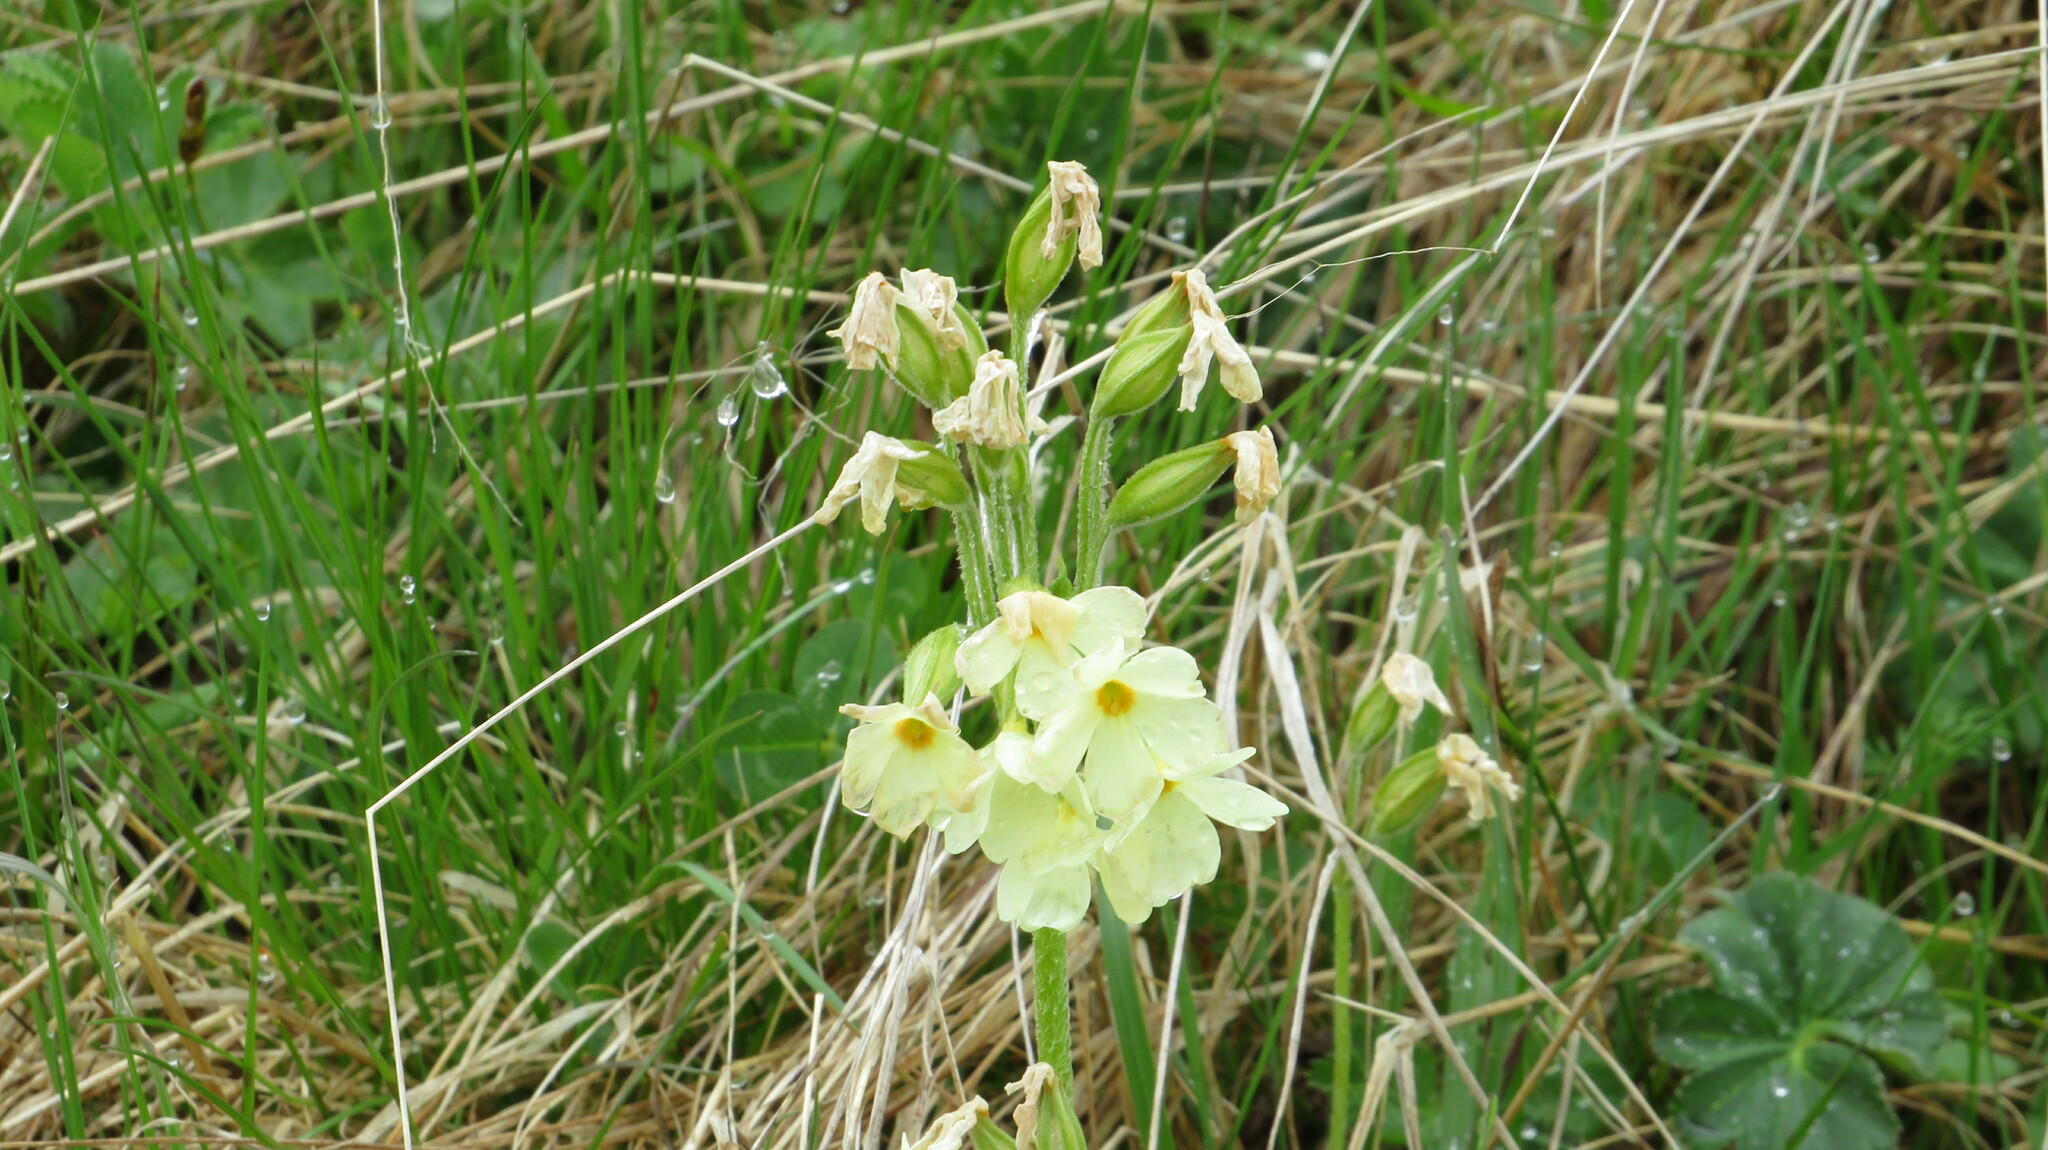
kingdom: Plantae
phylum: Tracheophyta
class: Magnoliopsida
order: Ericales
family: Primulaceae
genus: Primula
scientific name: Primula elatior
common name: Oxlip
